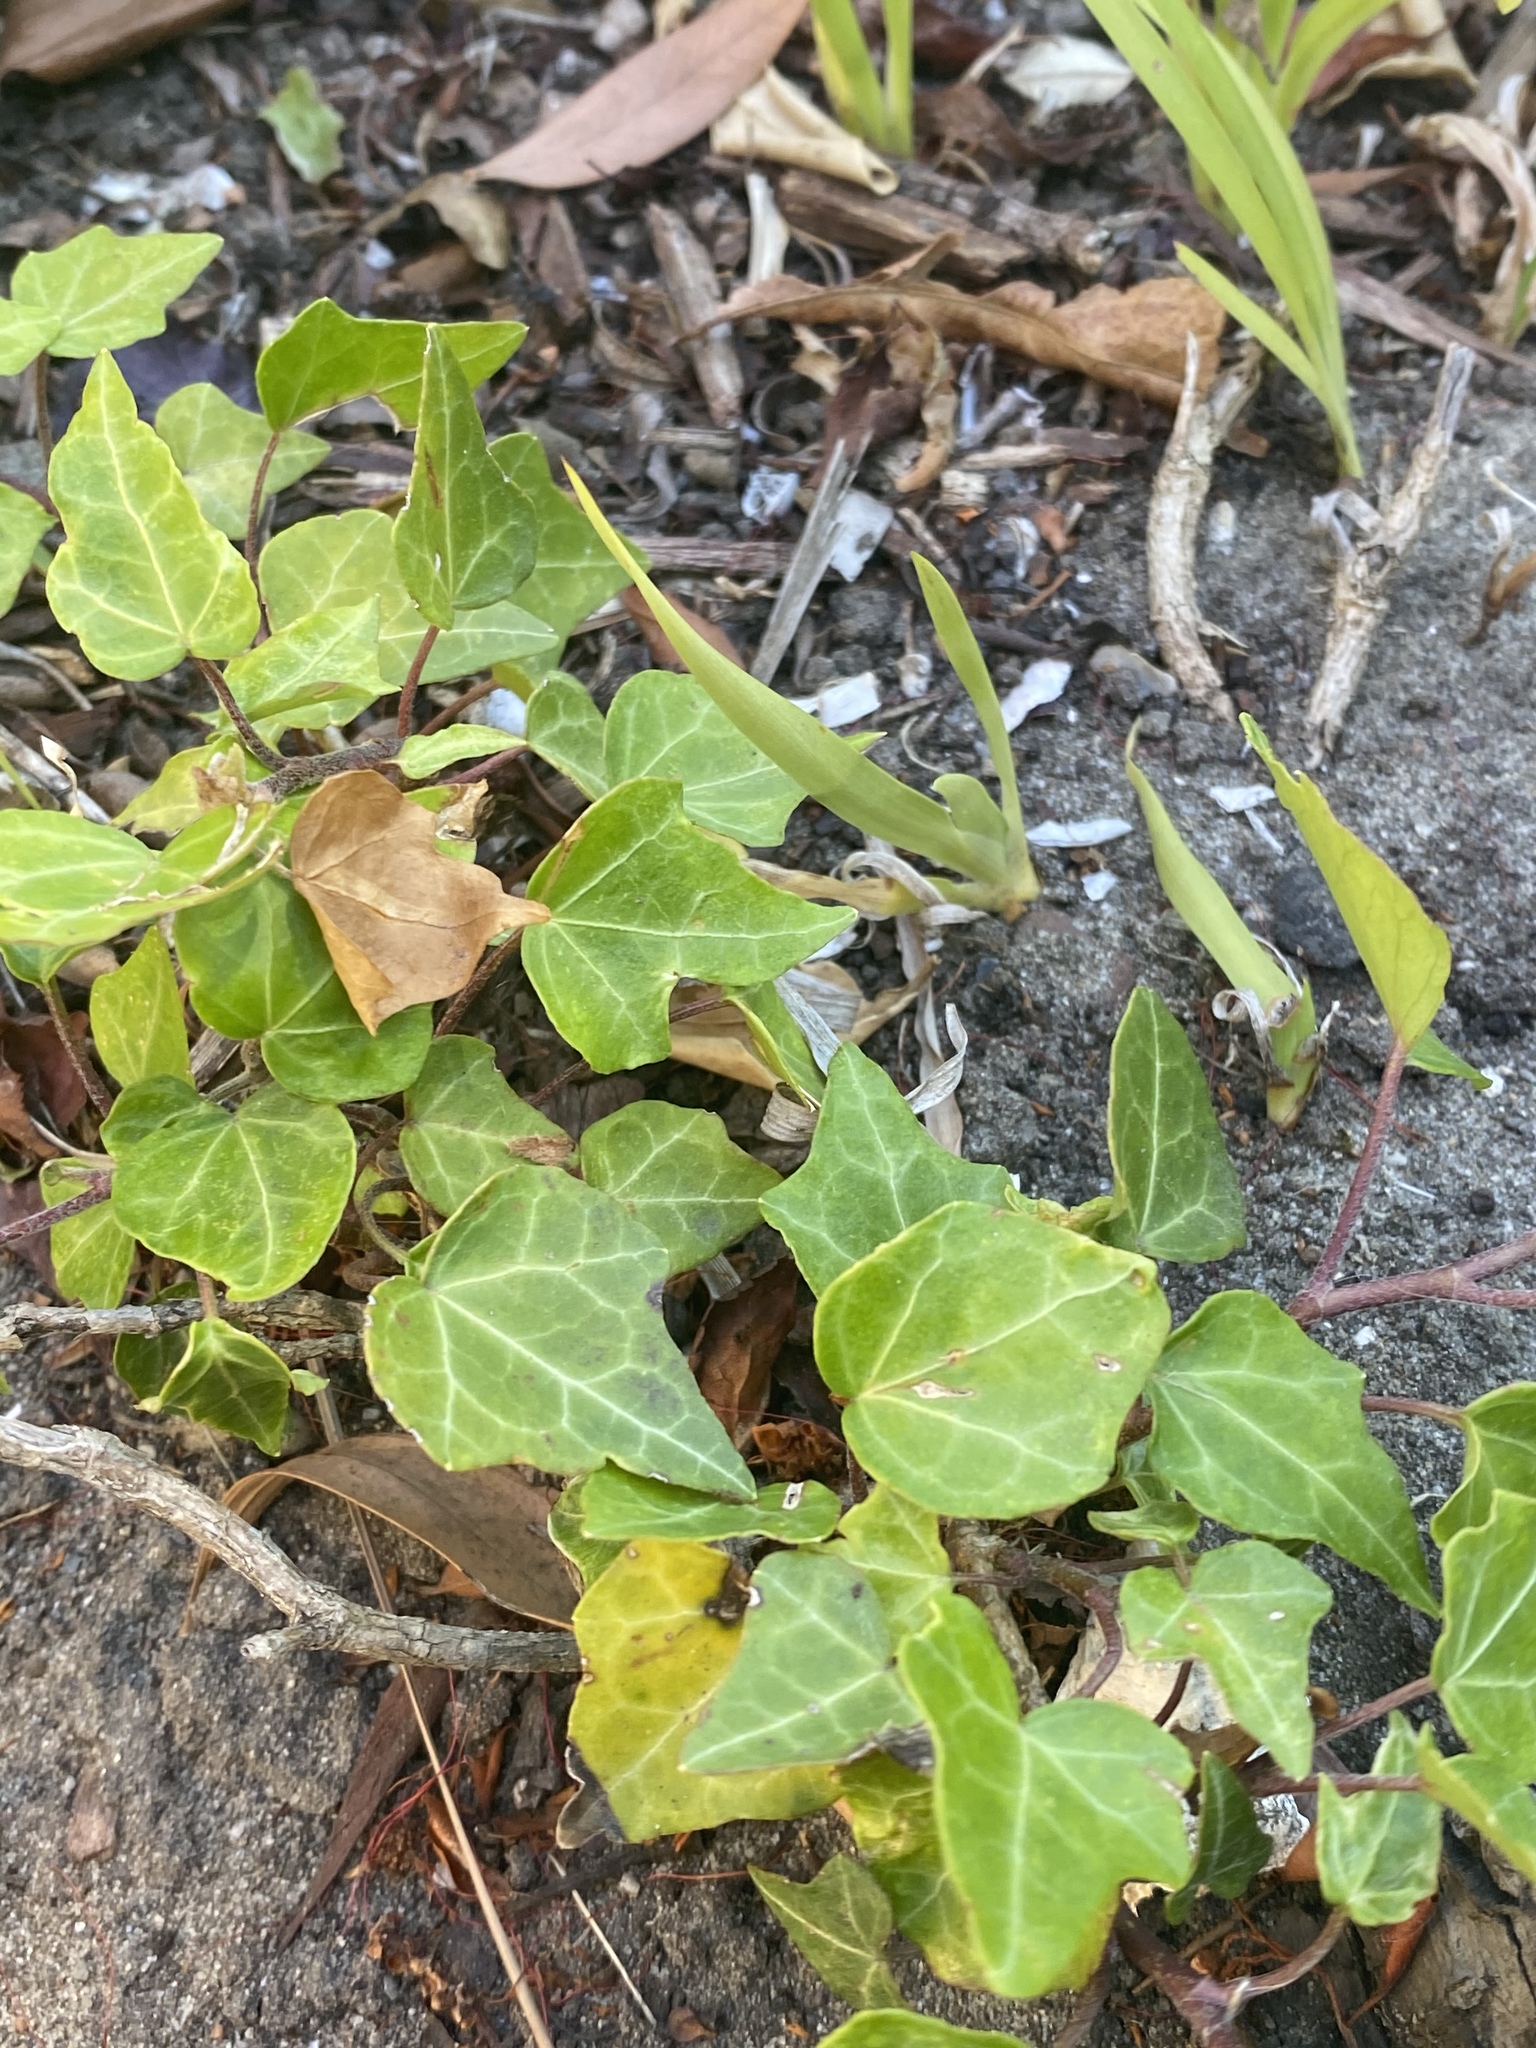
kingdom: Plantae
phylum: Tracheophyta
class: Magnoliopsida
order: Apiales
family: Araliaceae
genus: Hedera
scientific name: Hedera helix
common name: Ivy
